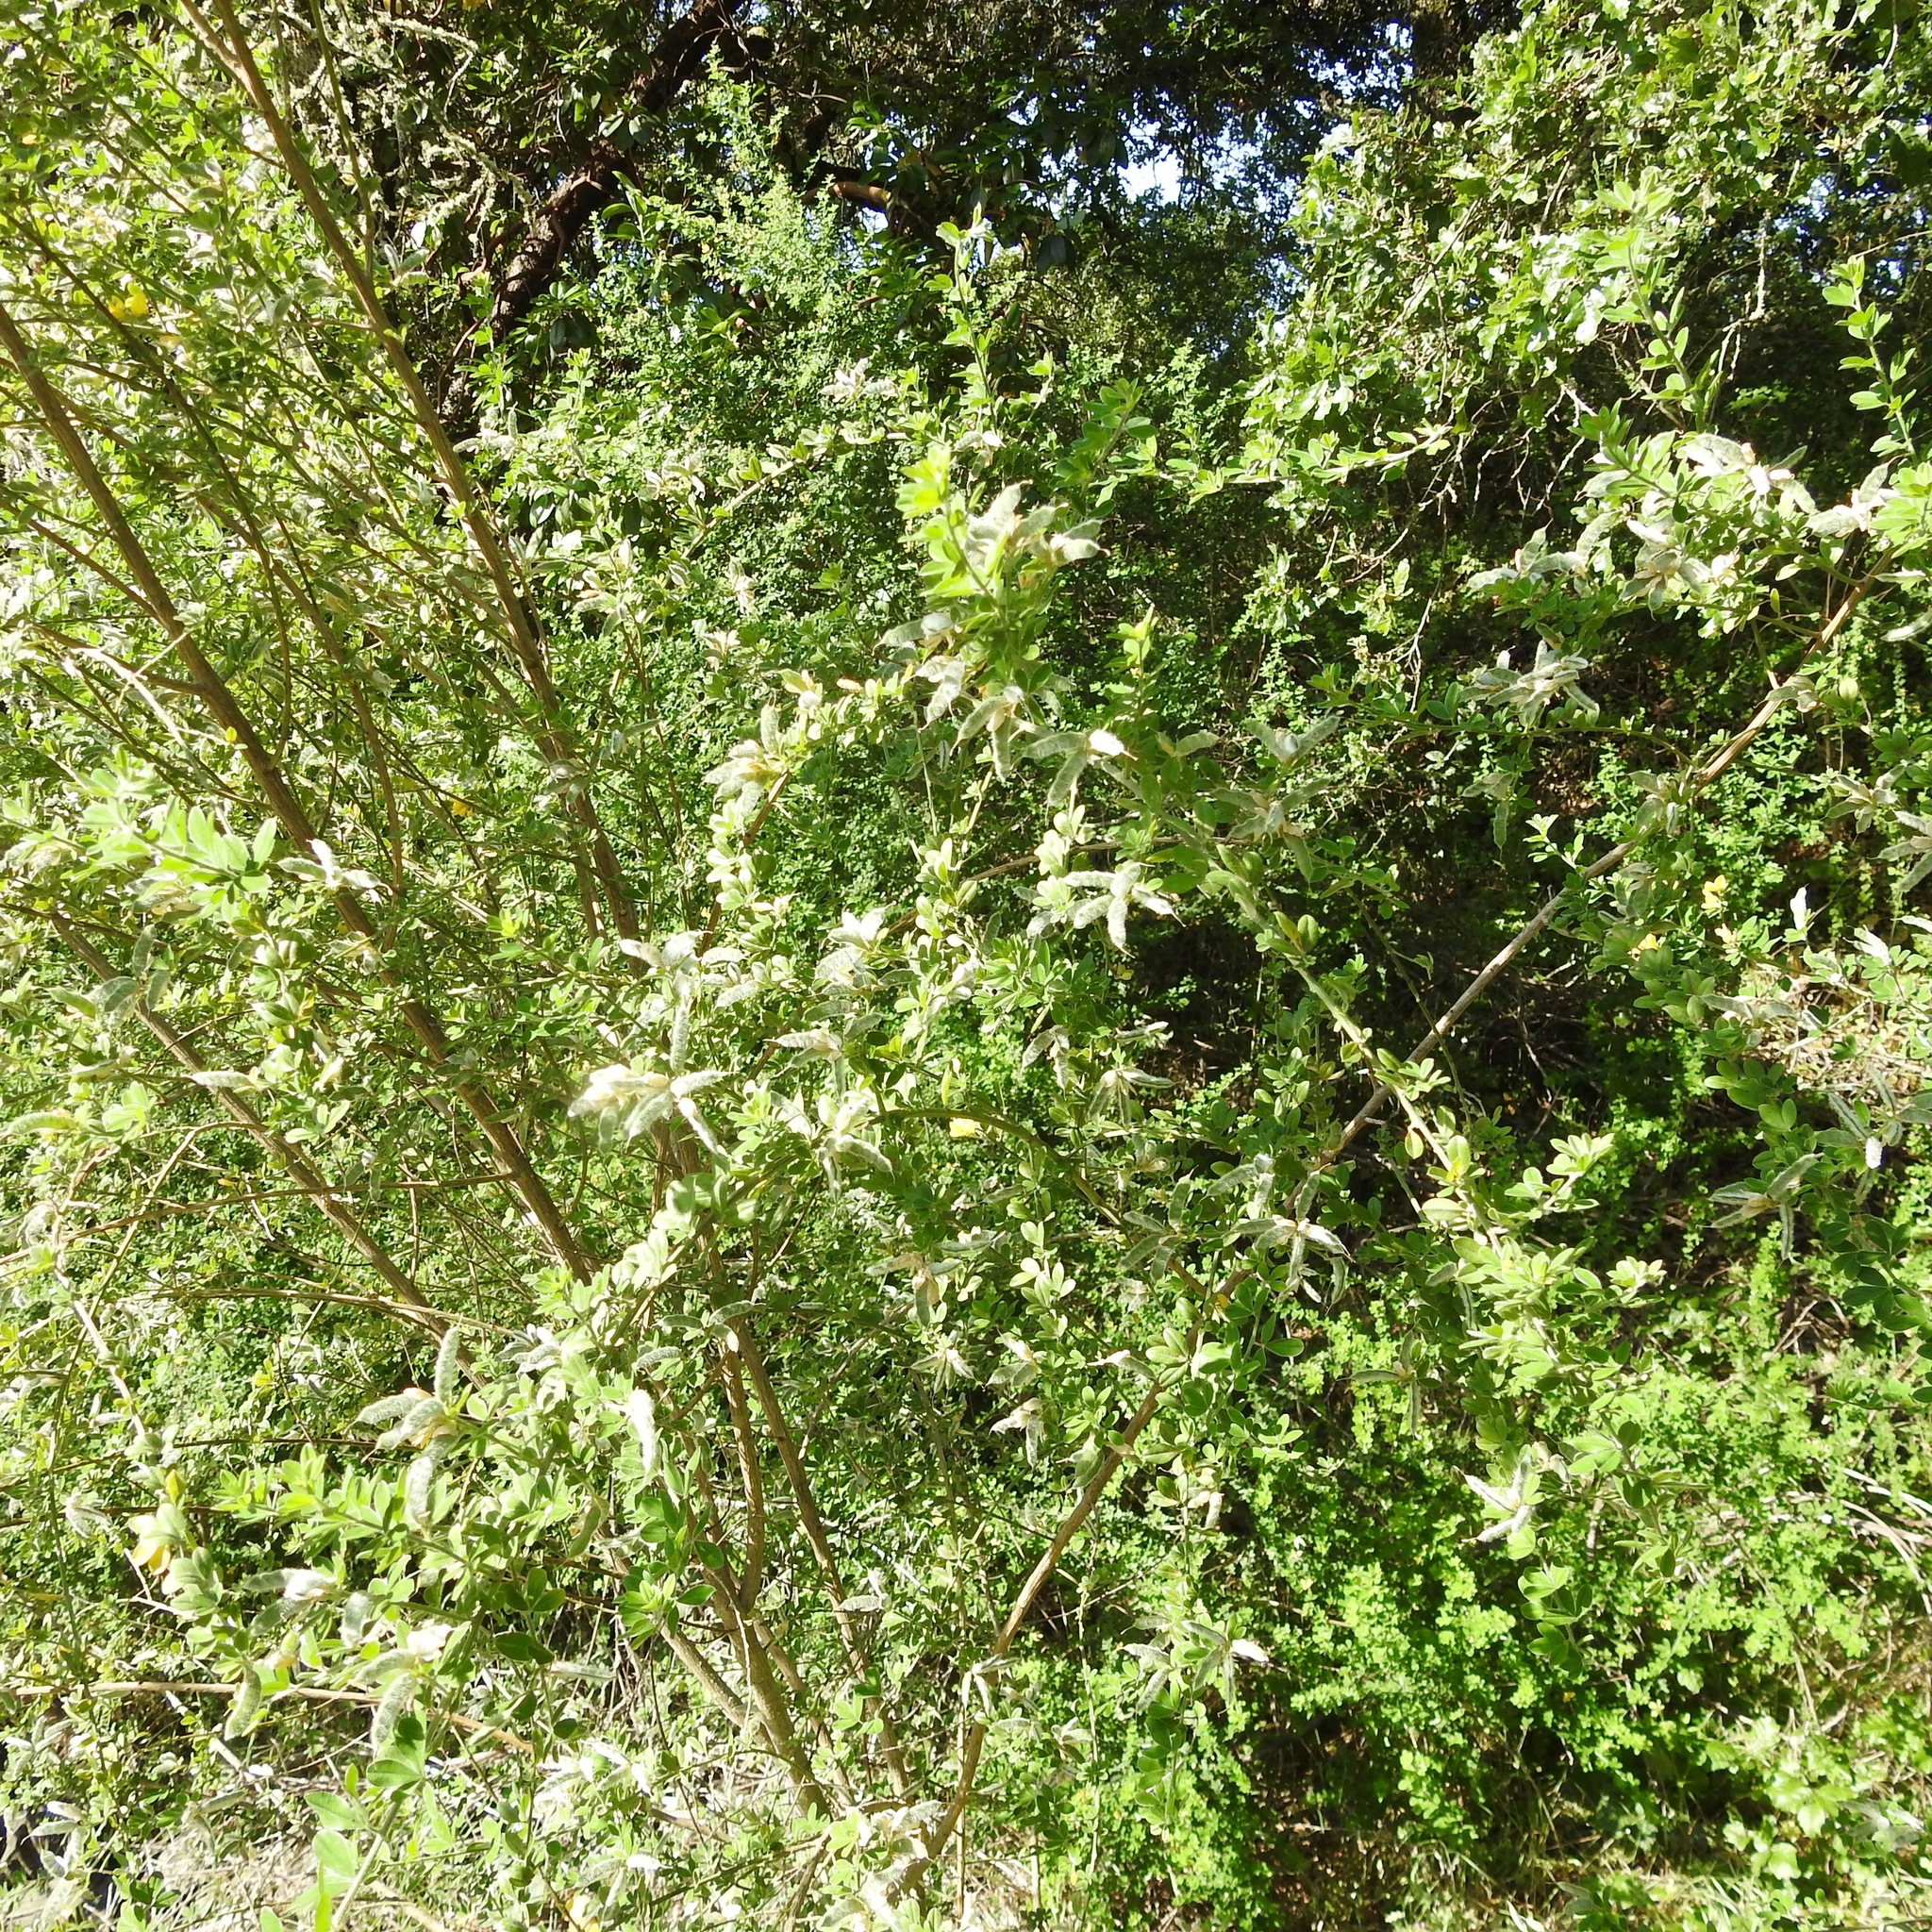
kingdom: Plantae
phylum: Tracheophyta
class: Magnoliopsida
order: Fabales
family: Fabaceae
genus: Genista
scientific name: Genista monspessulana
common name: Montpellier broom
